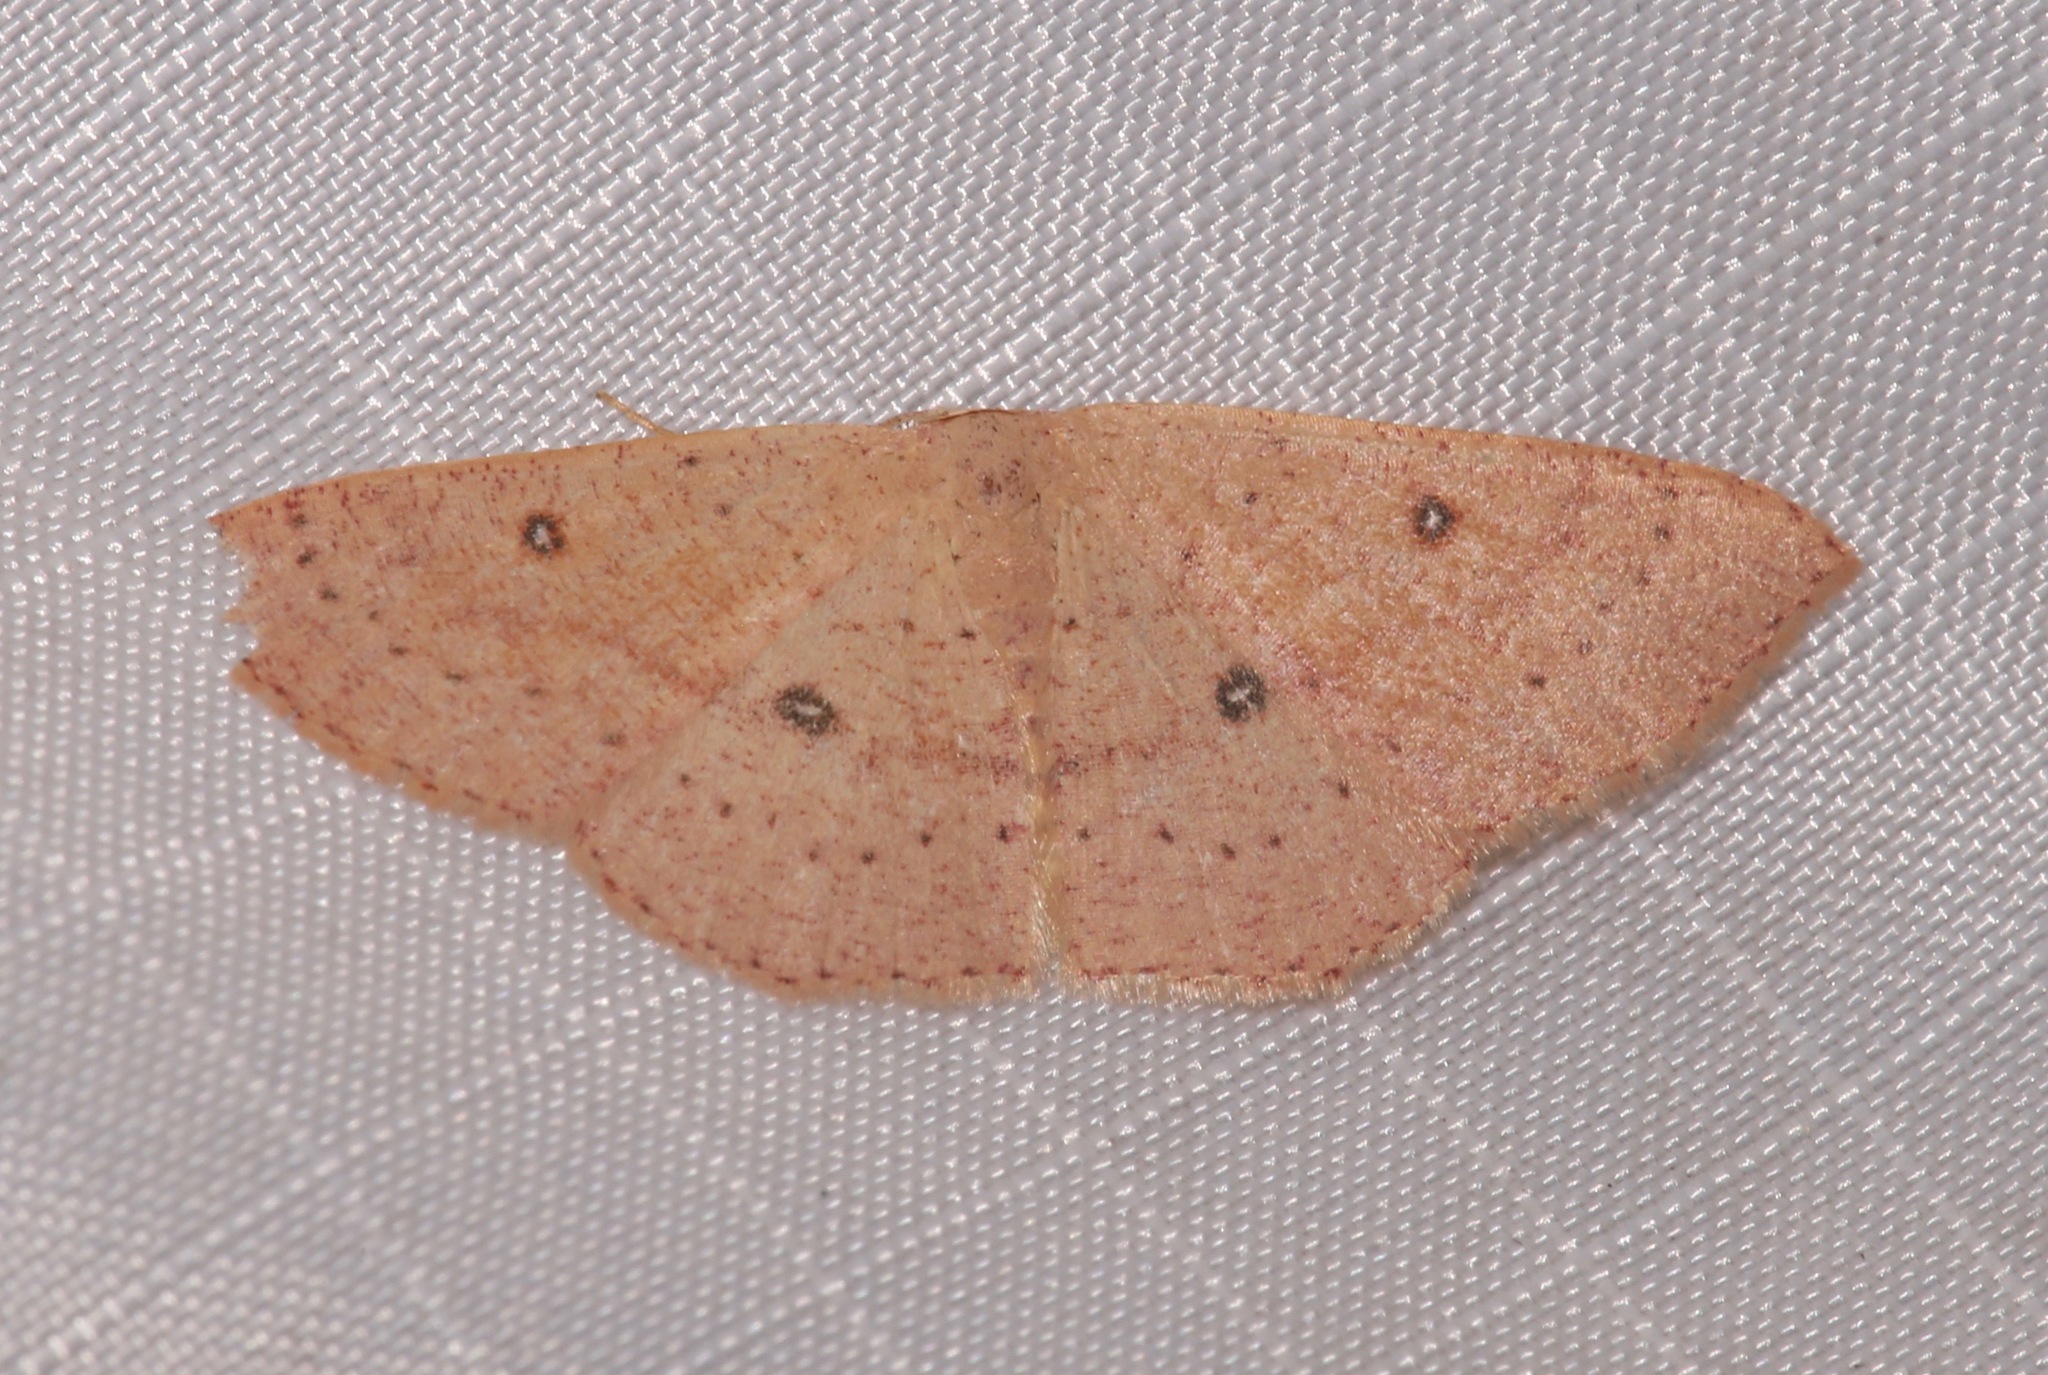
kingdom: Animalia
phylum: Arthropoda
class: Insecta
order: Lepidoptera
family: Geometridae
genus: Cyclophora
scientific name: Cyclophora dataria
